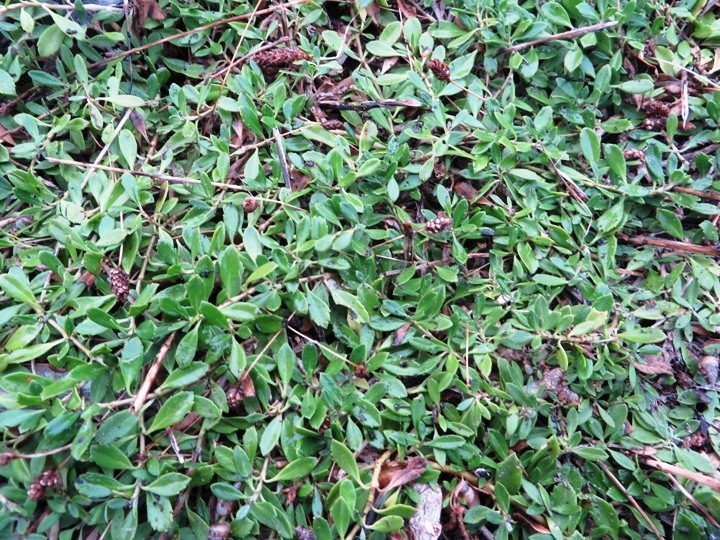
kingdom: Plantae
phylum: Tracheophyta
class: Magnoliopsida
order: Lamiales
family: Verbenaceae
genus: Phyla
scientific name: Phyla nodiflora
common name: Frogfruit
